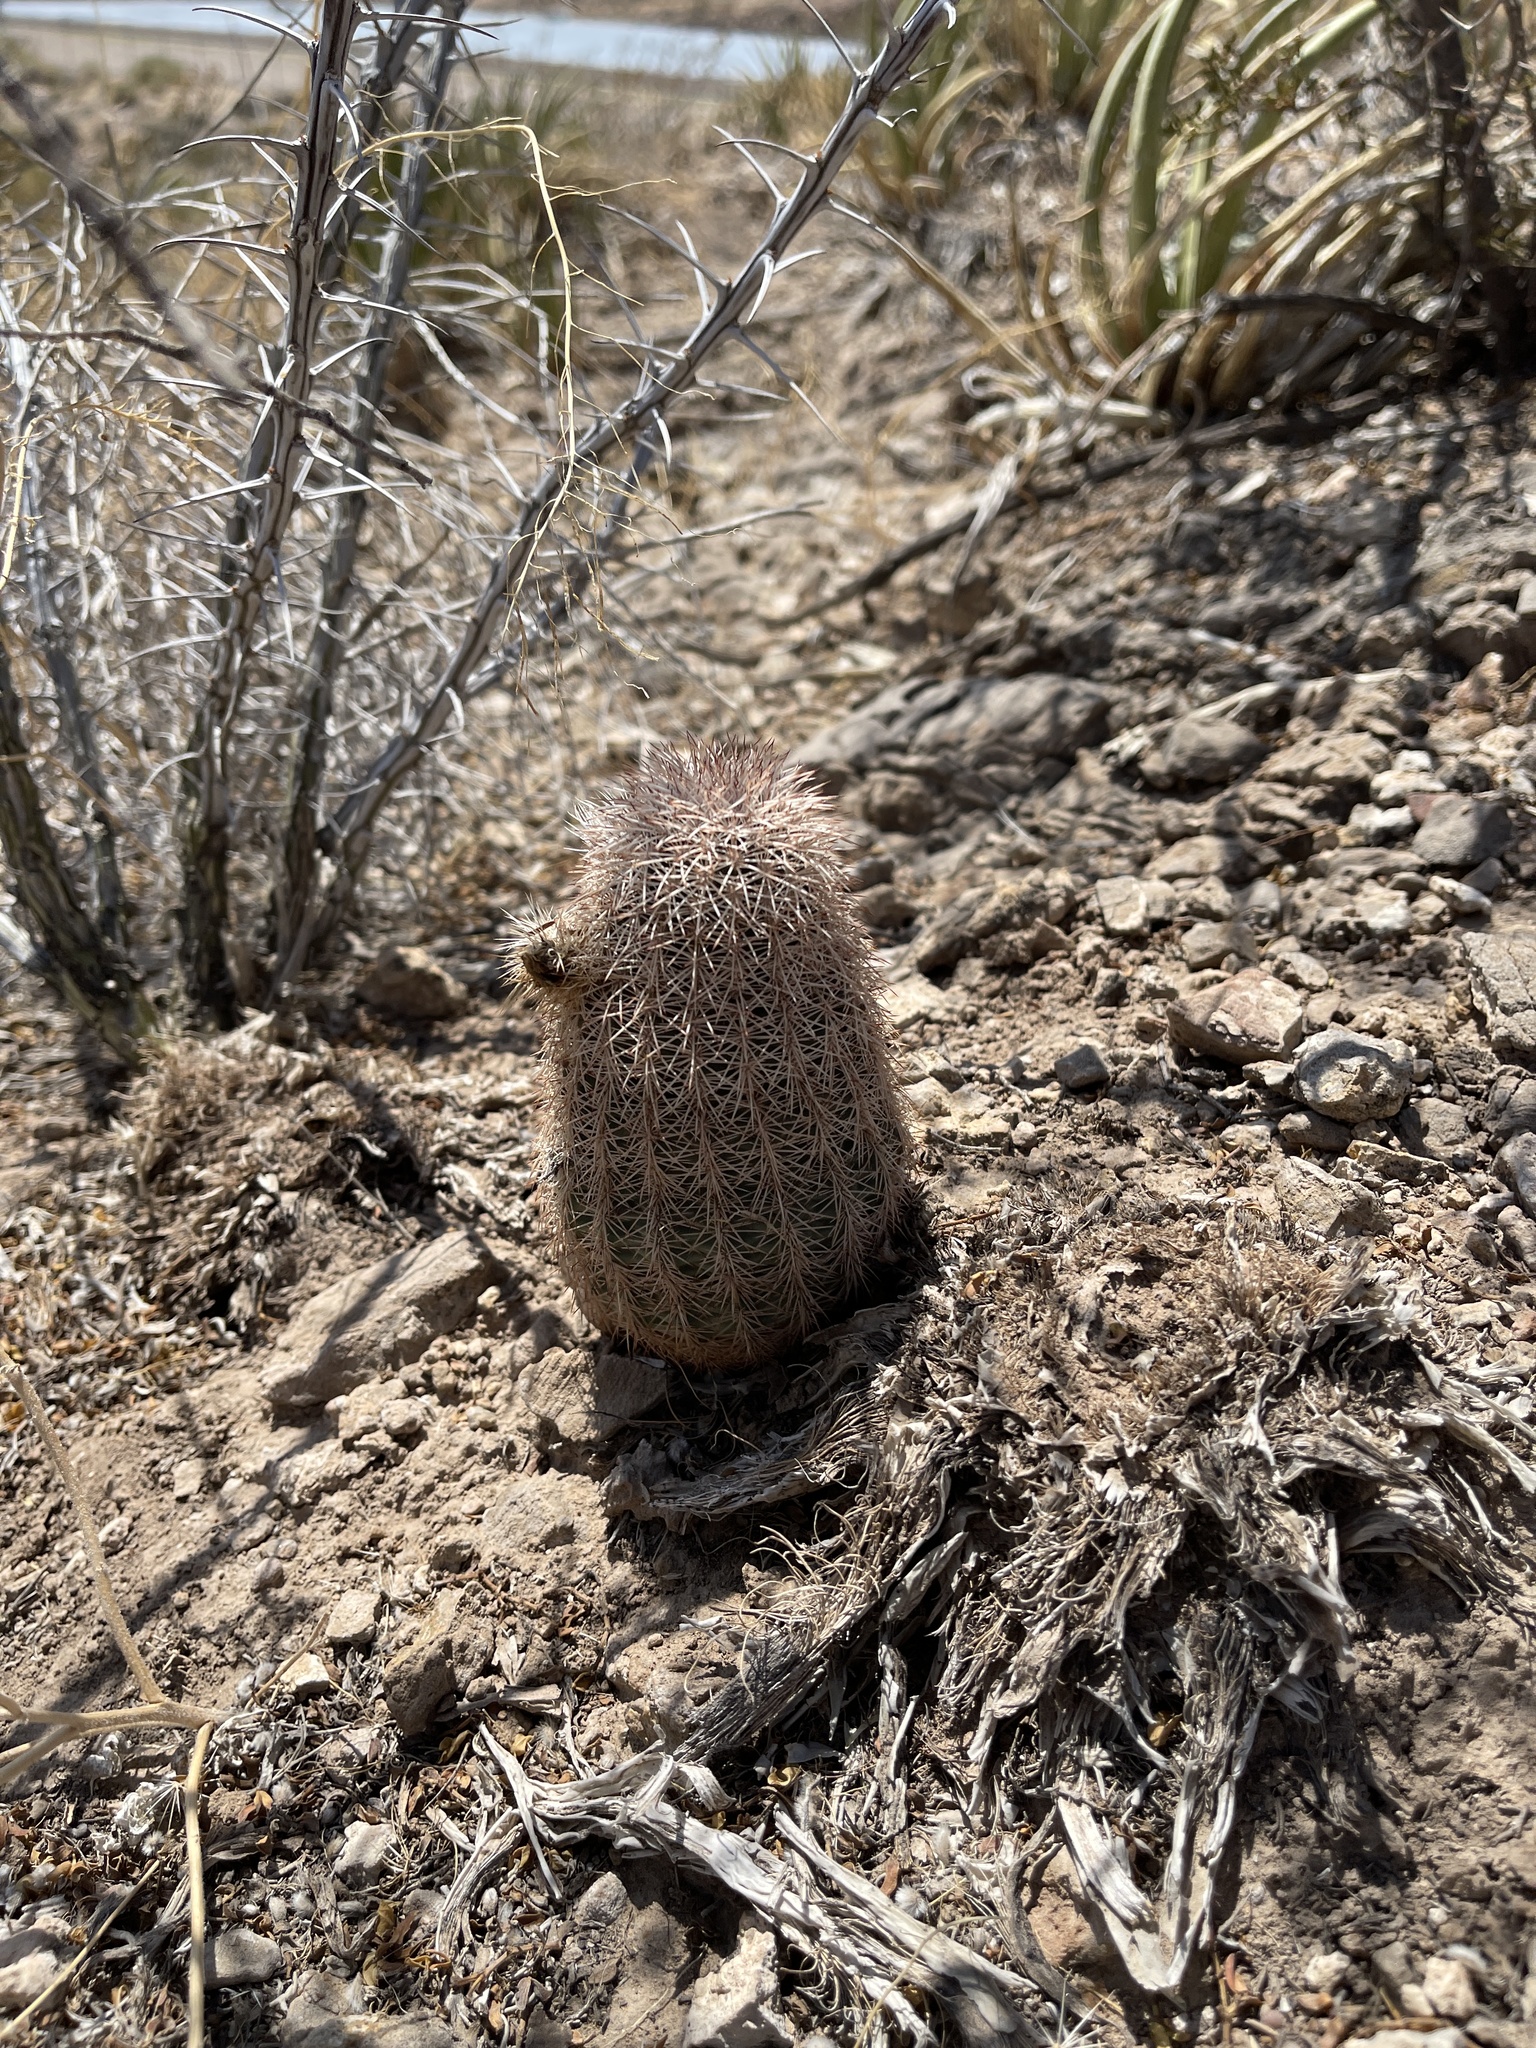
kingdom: Plantae
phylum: Tracheophyta
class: Magnoliopsida
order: Caryophyllales
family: Cactaceae
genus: Echinocereus
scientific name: Echinocereus dasyacanthus
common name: Spiny hedgehog cactus
